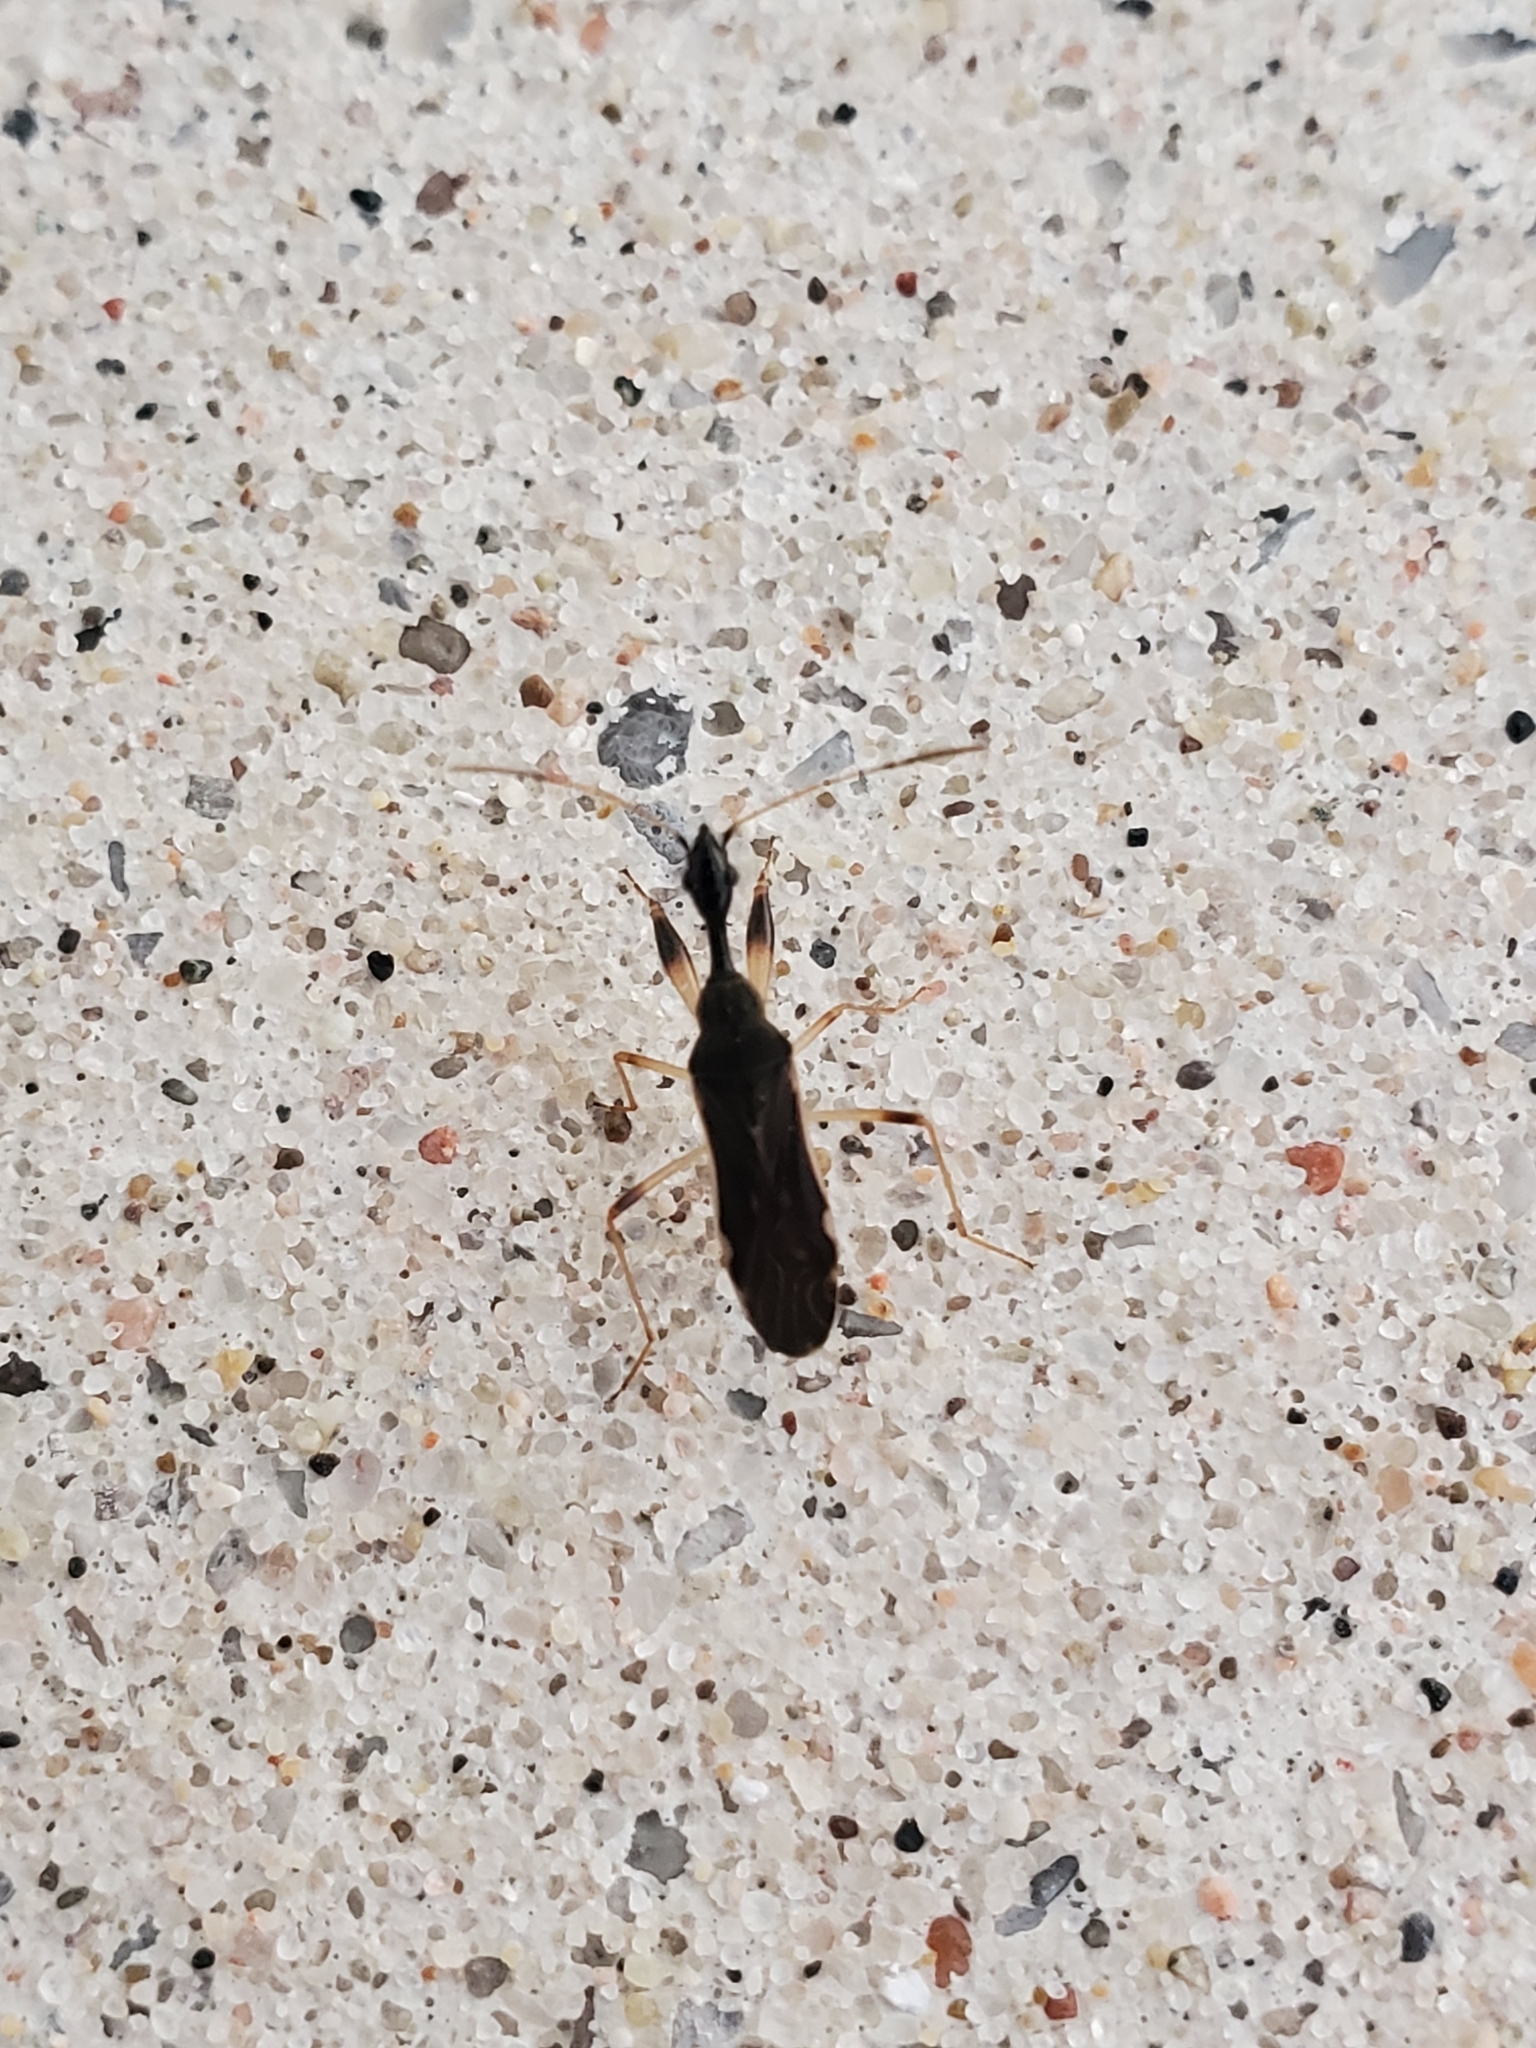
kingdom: Animalia
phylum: Arthropoda
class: Insecta
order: Hemiptera
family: Rhyparochromidae
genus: Myodocha
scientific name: Myodocha serripes
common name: Long-necked seed bug
